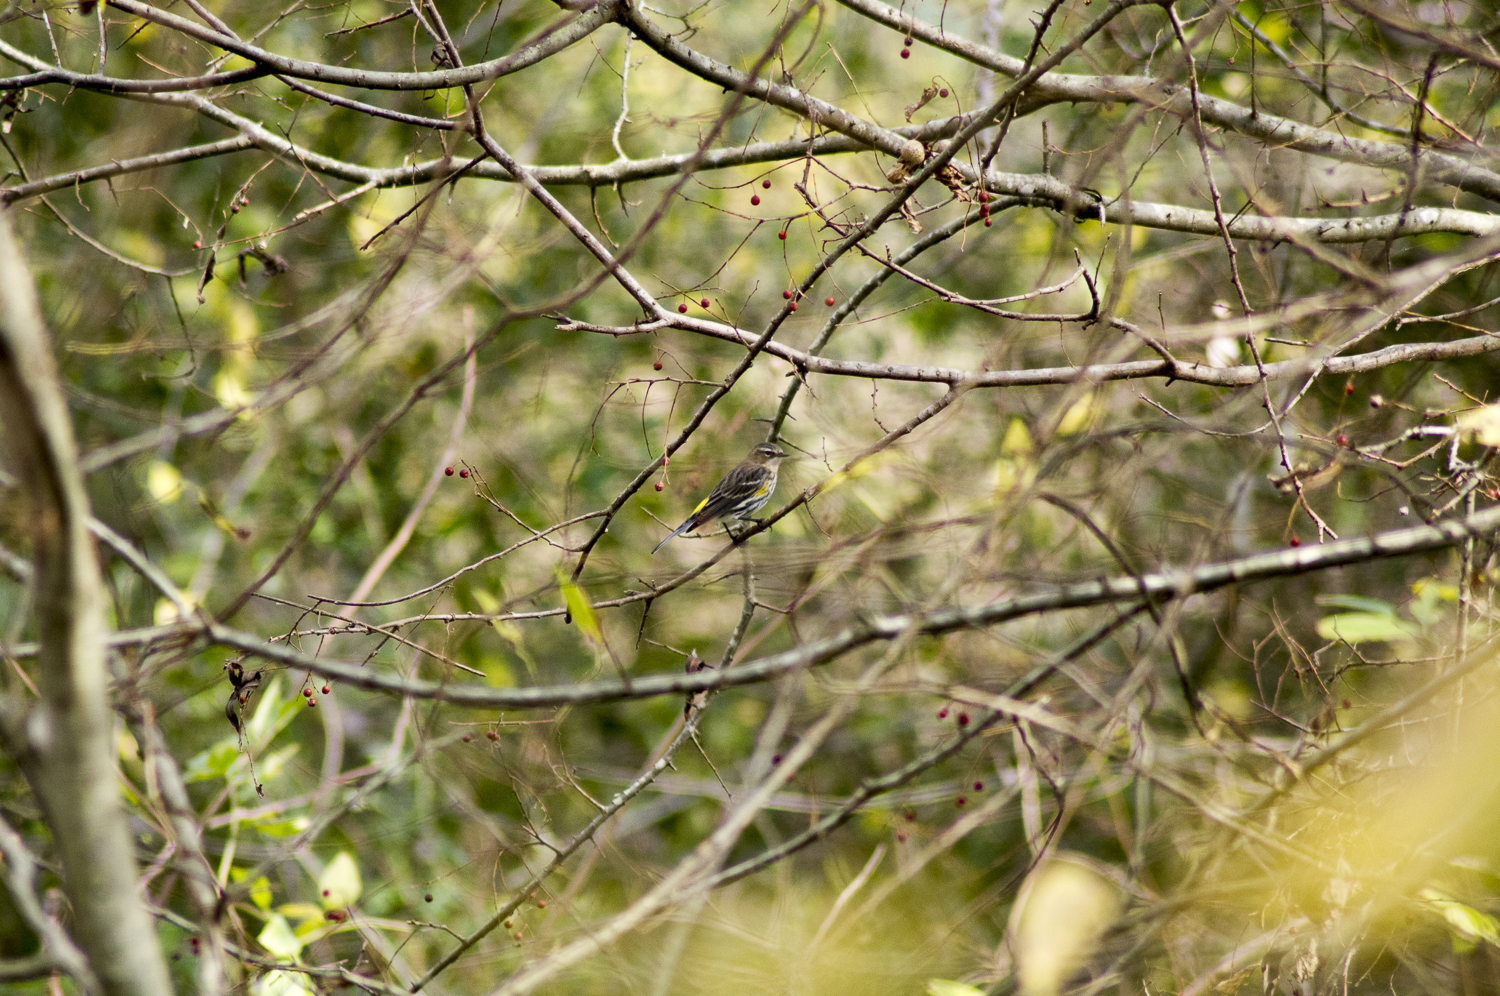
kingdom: Animalia
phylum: Chordata
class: Aves
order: Passeriformes
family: Parulidae
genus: Setophaga
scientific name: Setophaga coronata
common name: Myrtle warbler
